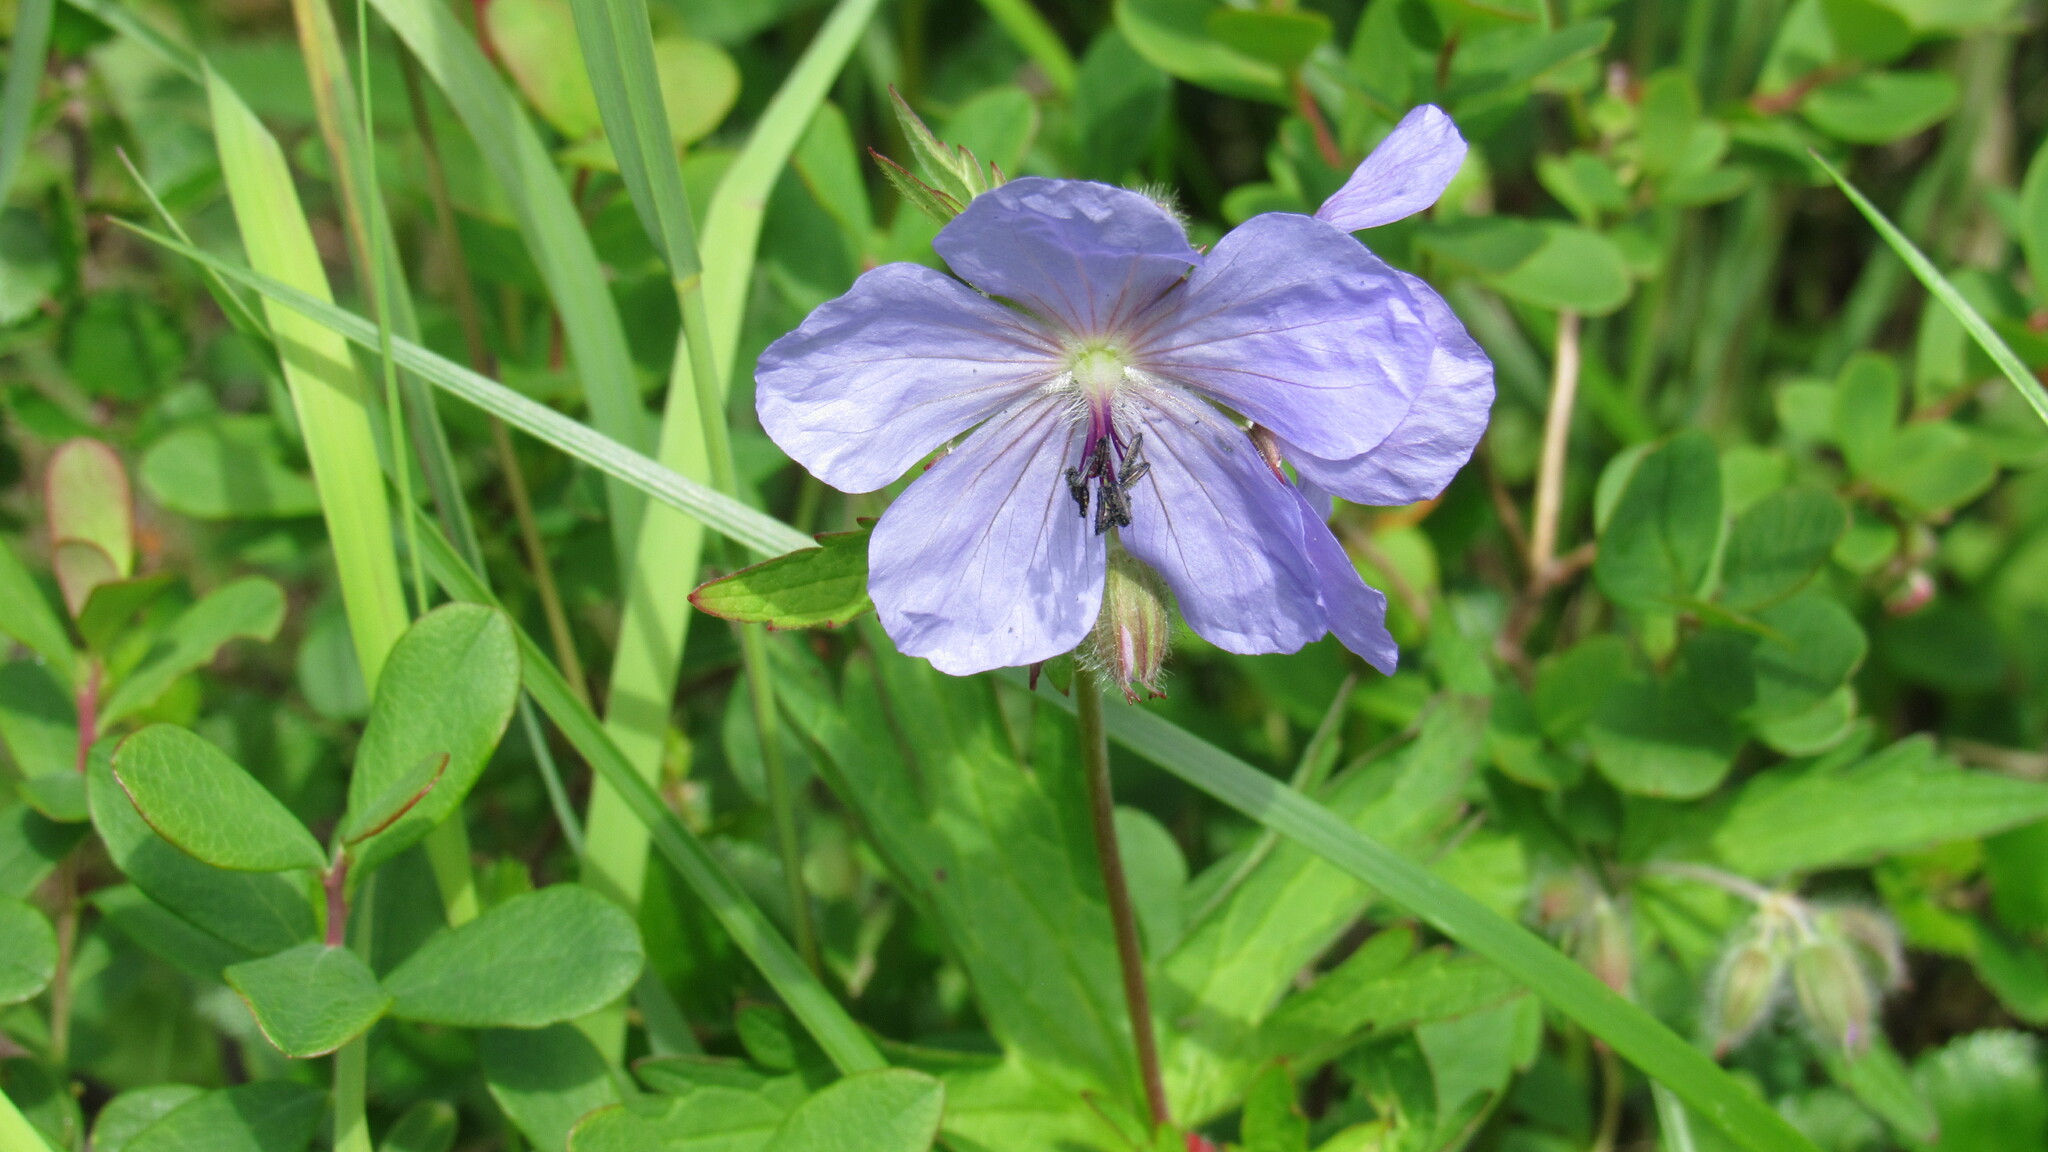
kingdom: Plantae
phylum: Tracheophyta
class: Magnoliopsida
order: Geraniales
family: Geraniaceae
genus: Geranium
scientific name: Geranium erianthum
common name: Northern crane's-bill
